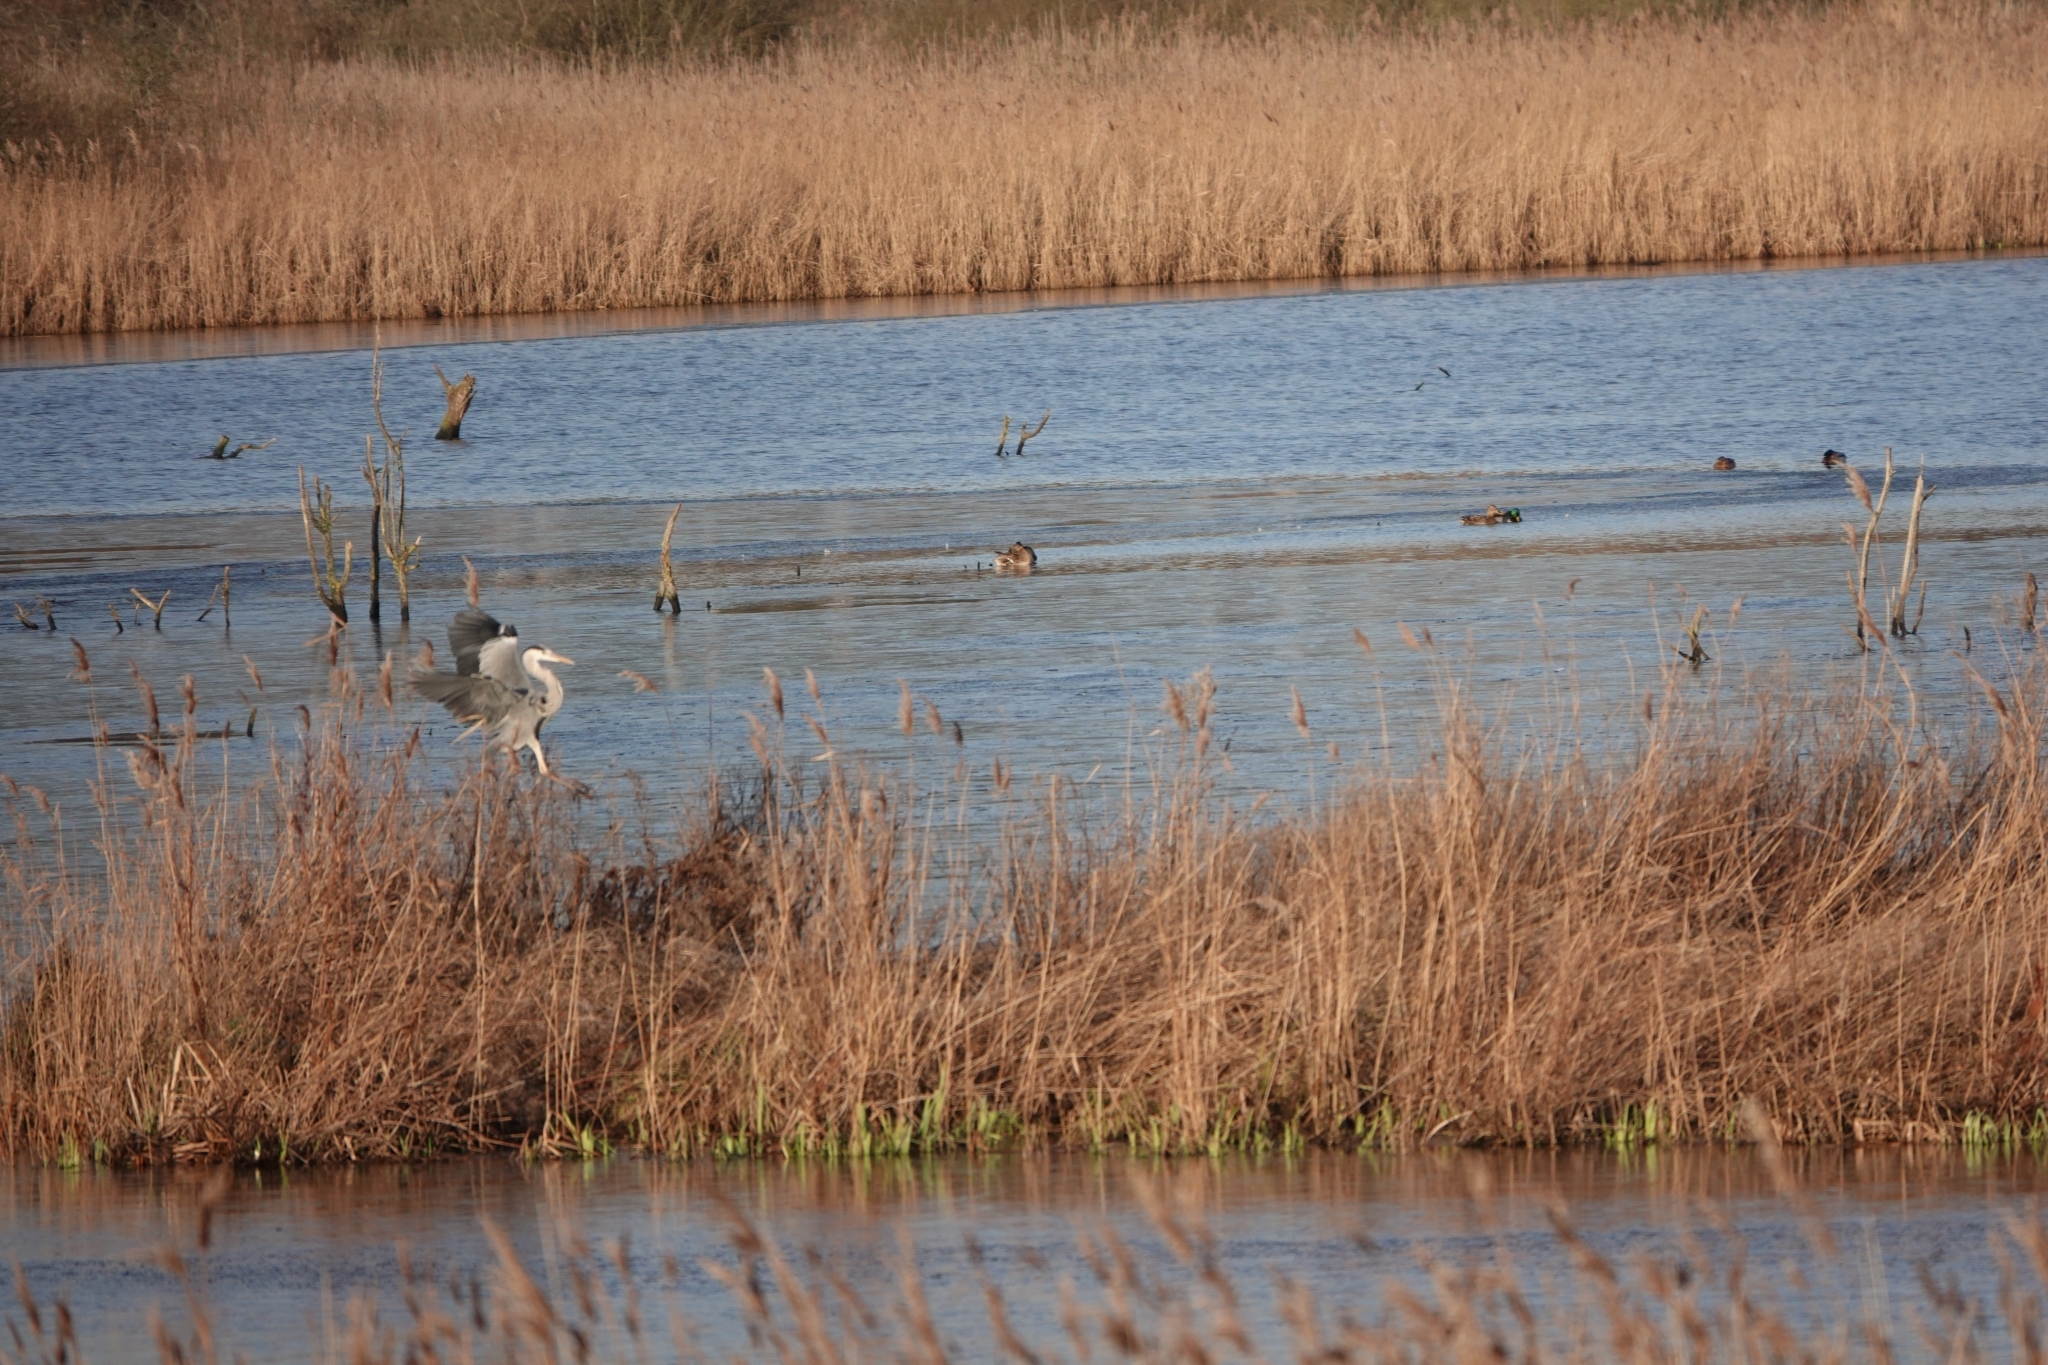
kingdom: Animalia
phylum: Chordata
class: Aves
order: Pelecaniformes
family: Ardeidae
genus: Ardea
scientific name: Ardea cinerea
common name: Grey heron
